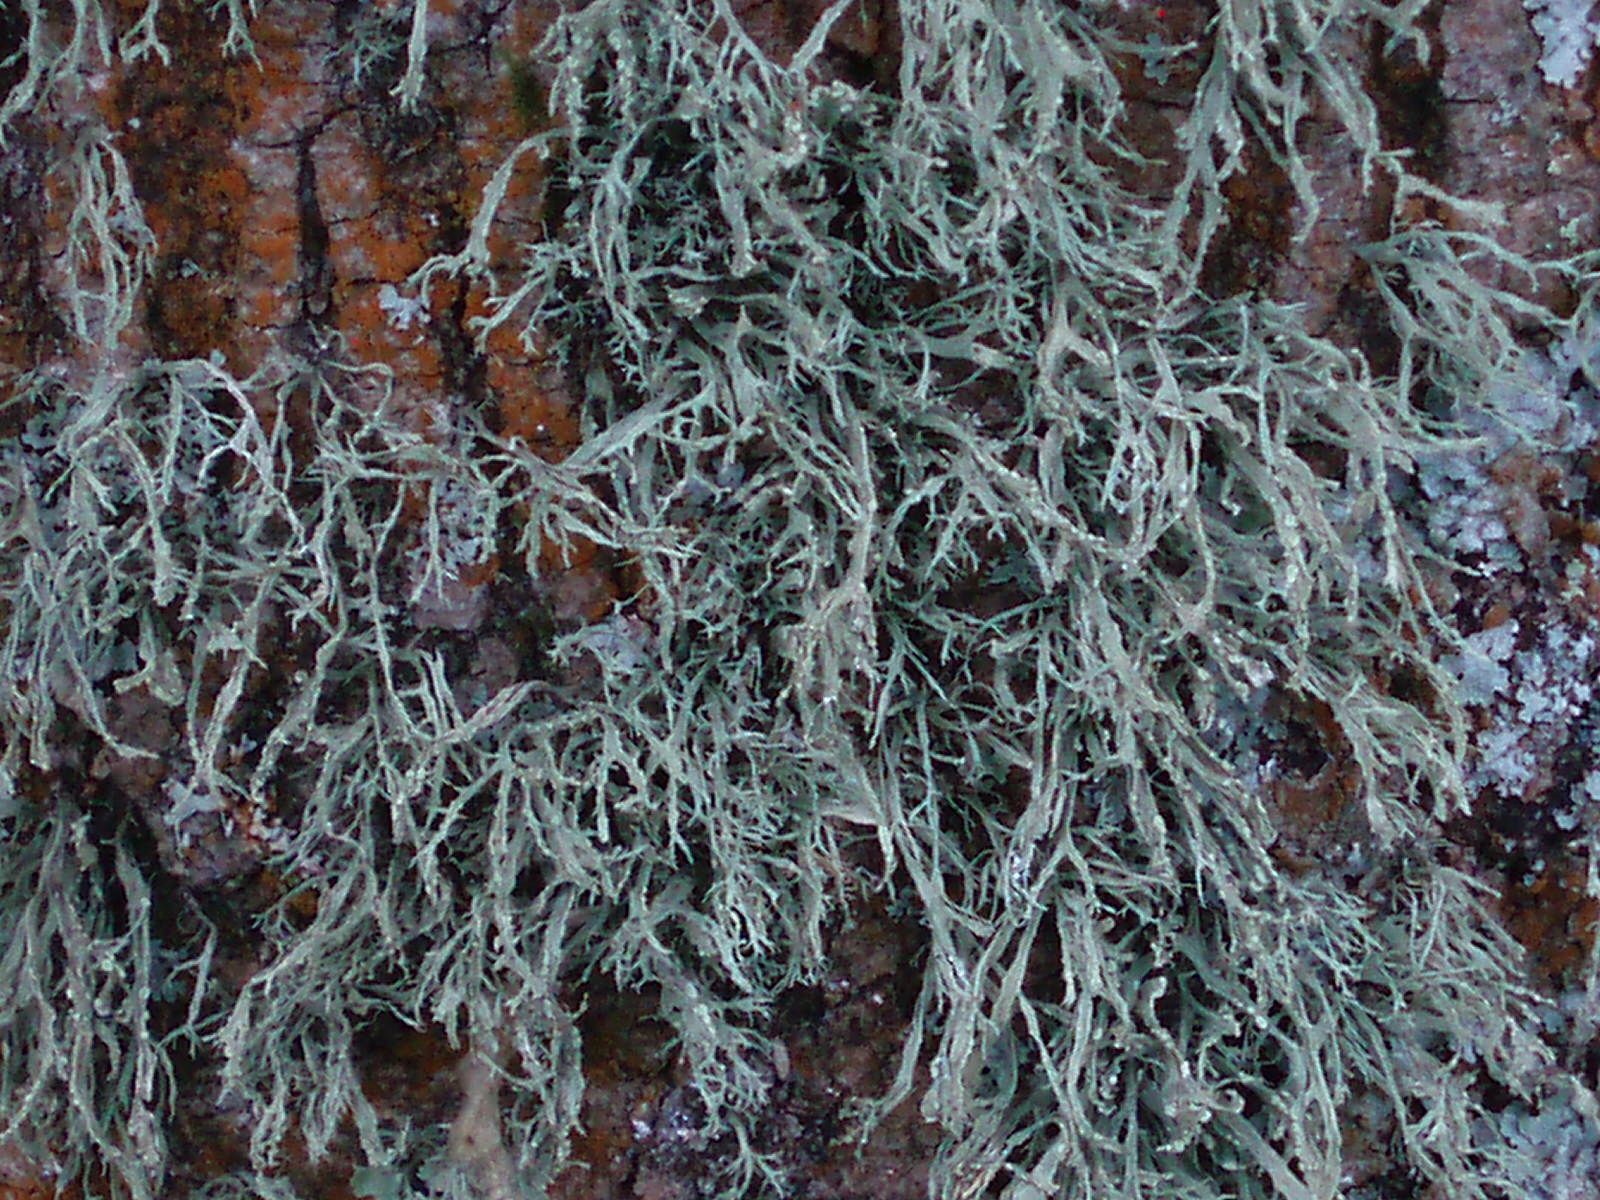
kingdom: Fungi
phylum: Ascomycota
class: Lecanoromycetes
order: Lecanorales
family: Ramalinaceae
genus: Ramalina
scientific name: Ramalina farinacea
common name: Farinose cartilage lichen
